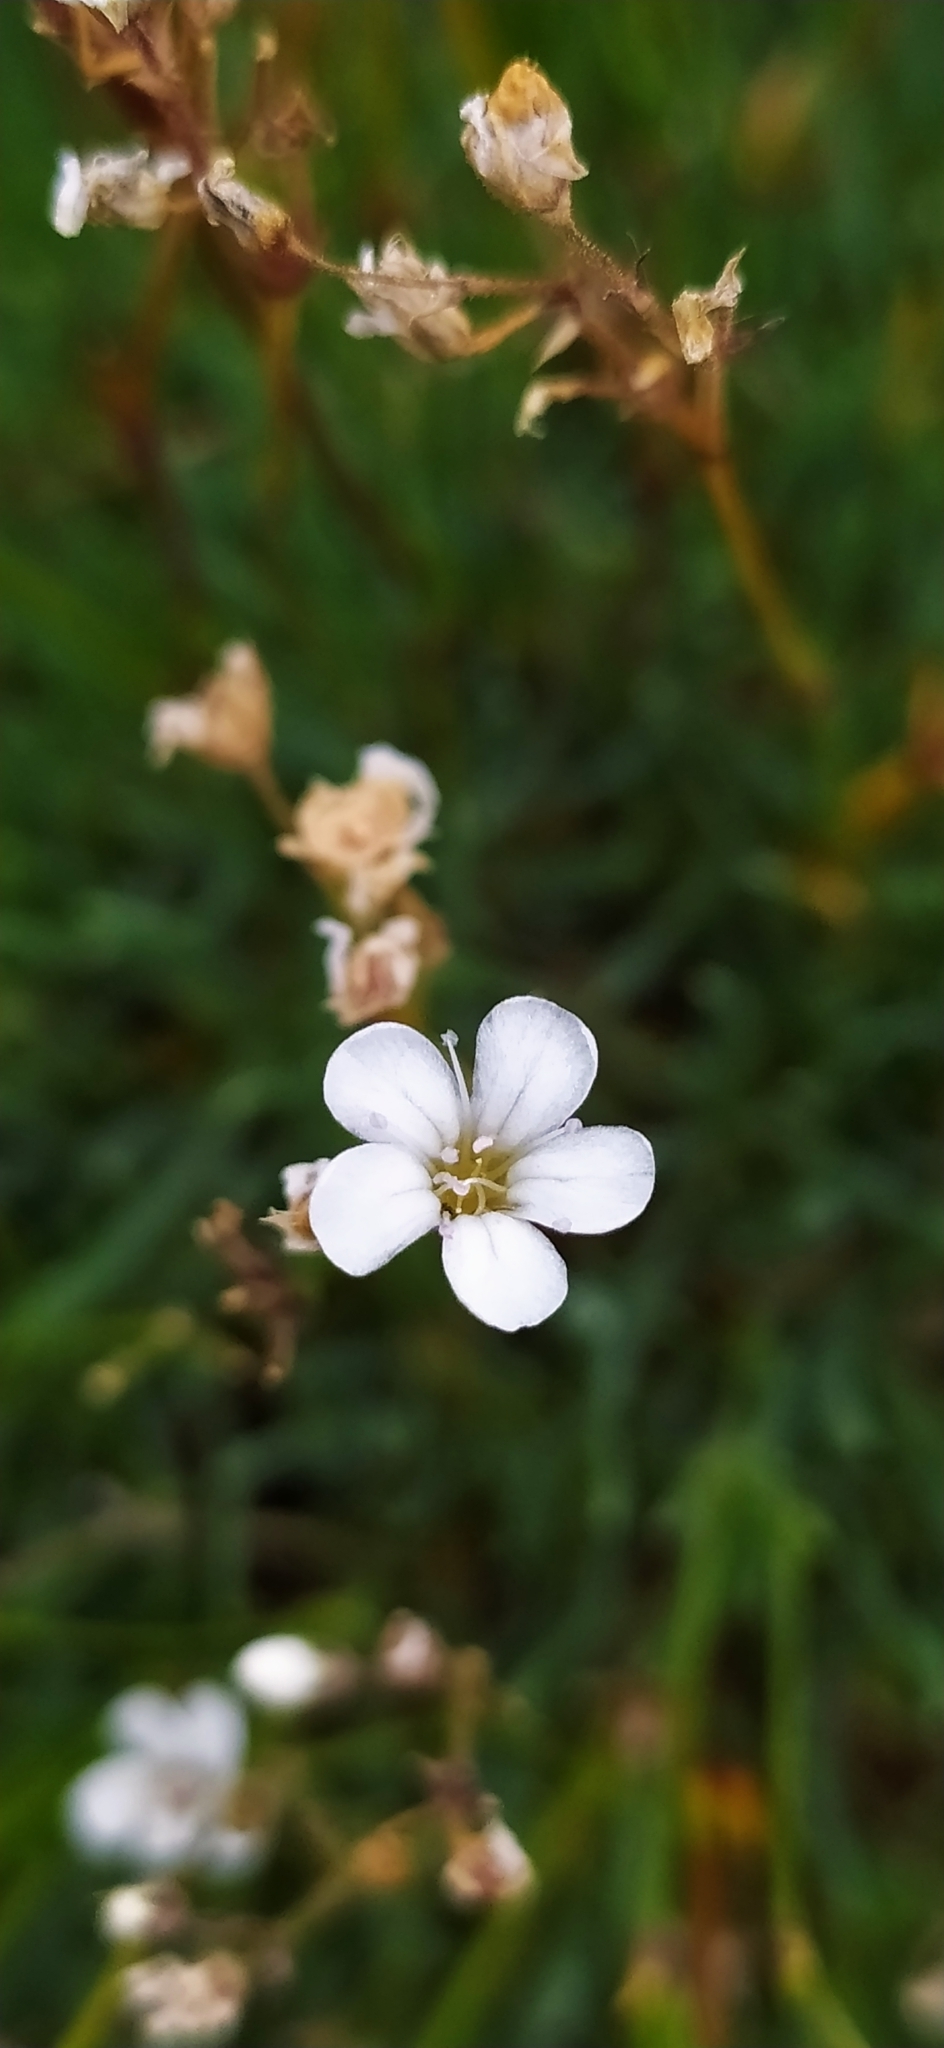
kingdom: Plantae
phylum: Tracheophyta
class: Magnoliopsida
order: Caryophyllales
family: Caryophyllaceae
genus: Gypsophila
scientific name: Gypsophila uralensis
